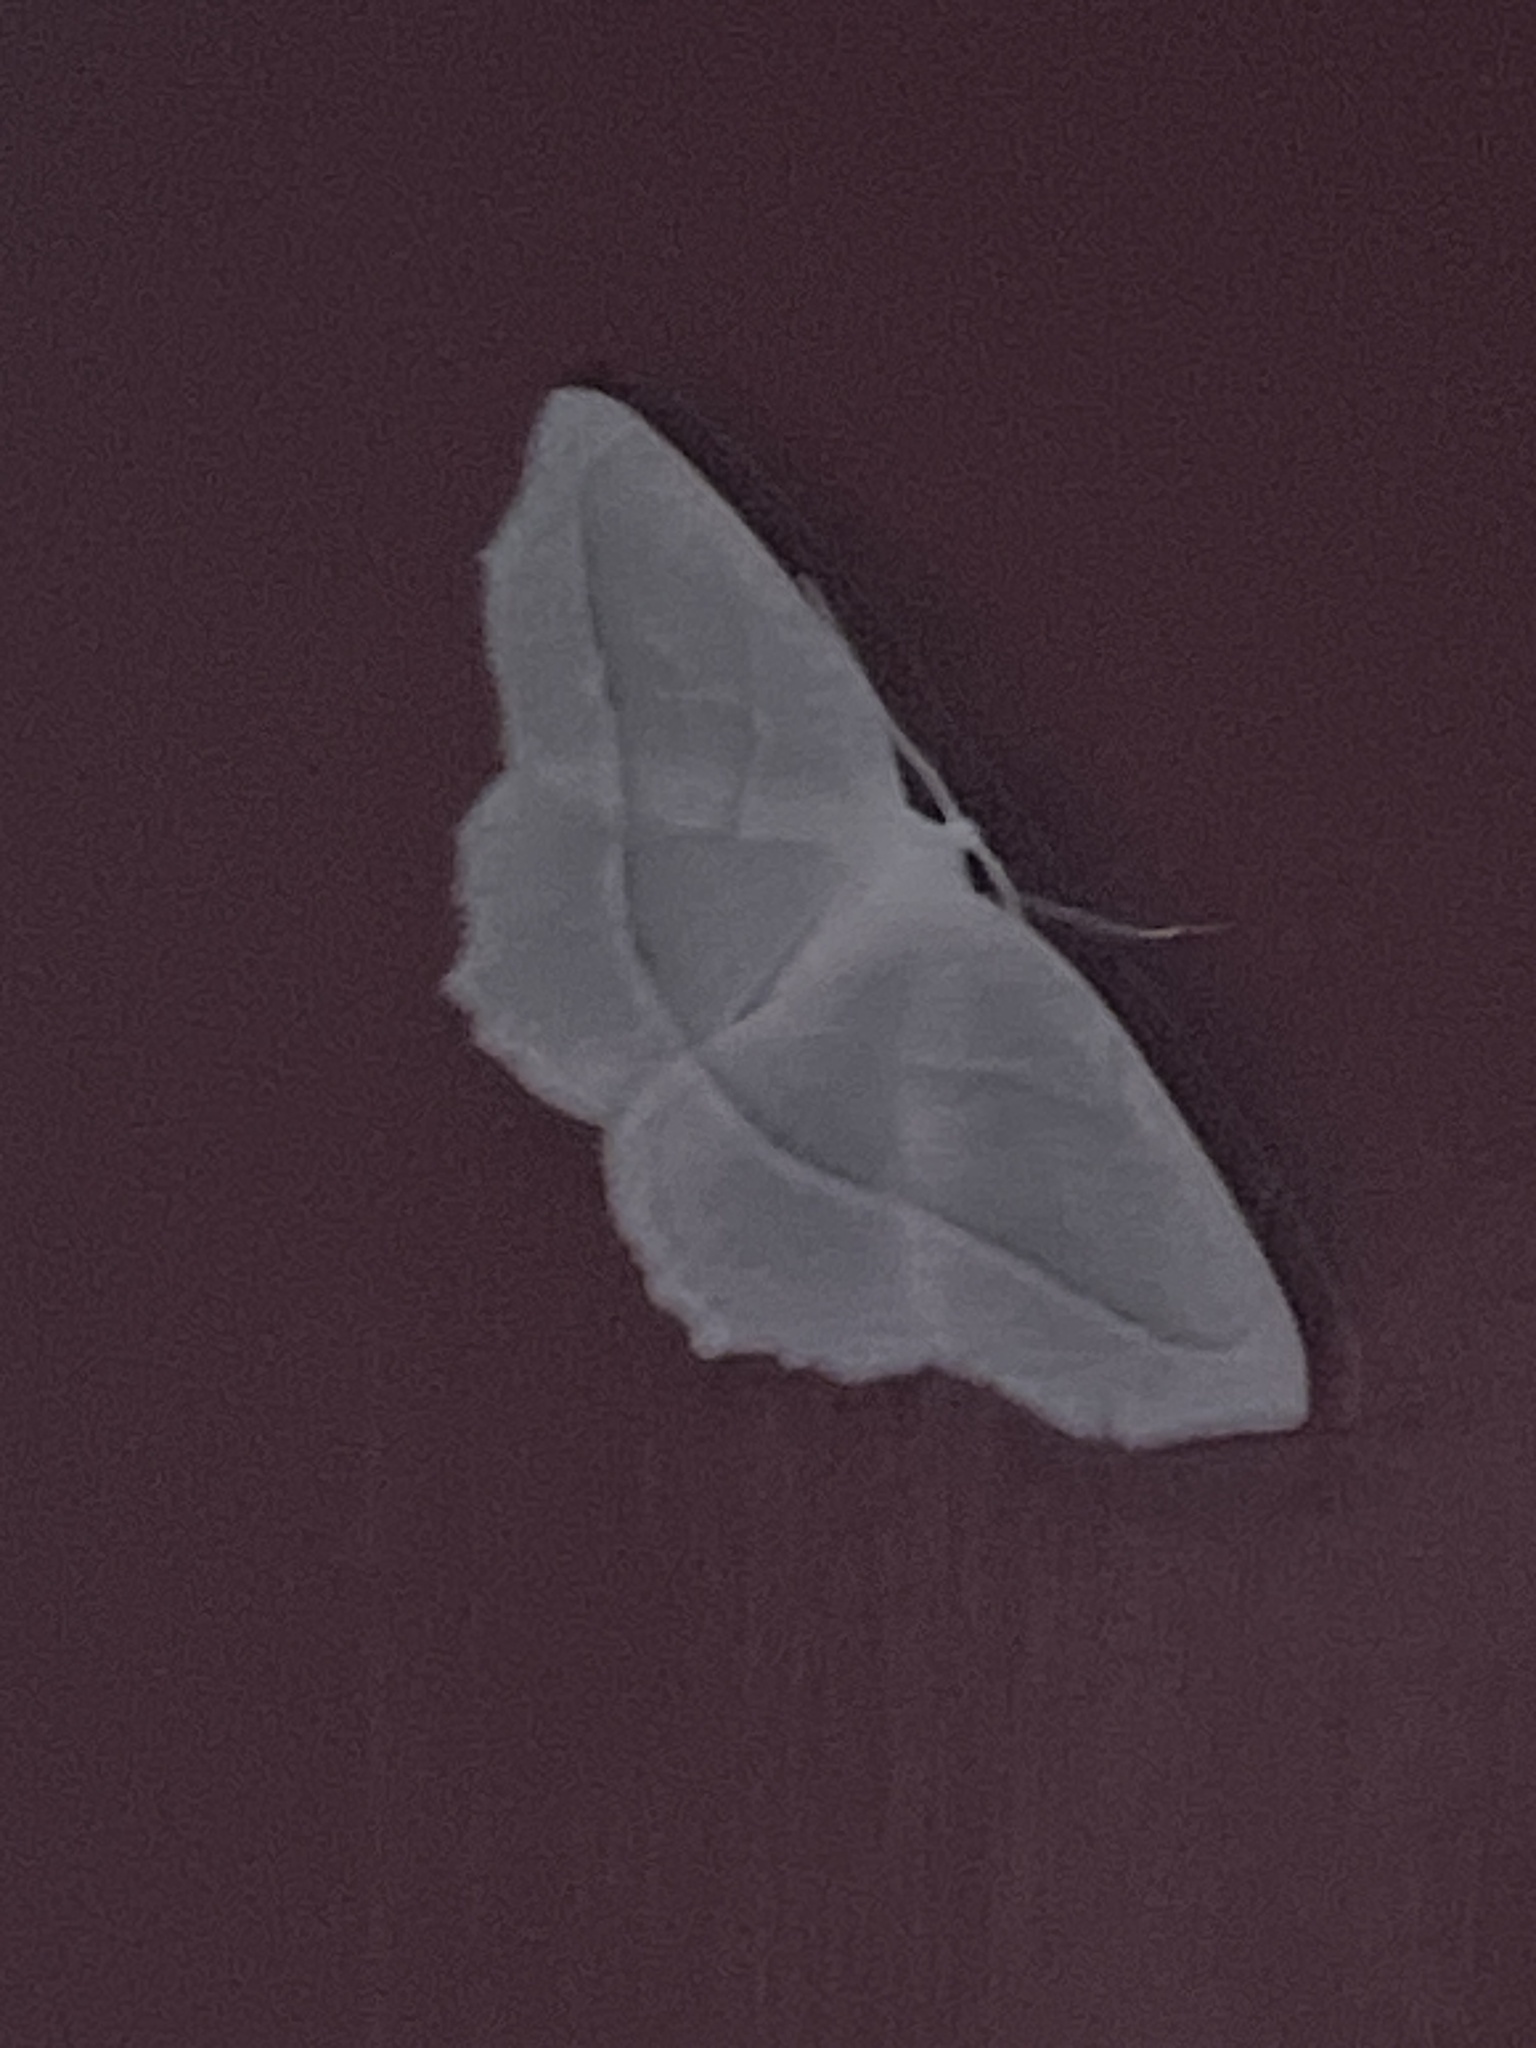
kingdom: Animalia
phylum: Arthropoda
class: Insecta
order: Lepidoptera
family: Geometridae
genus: Campaea
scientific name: Campaea perlata
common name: Fringed looper
